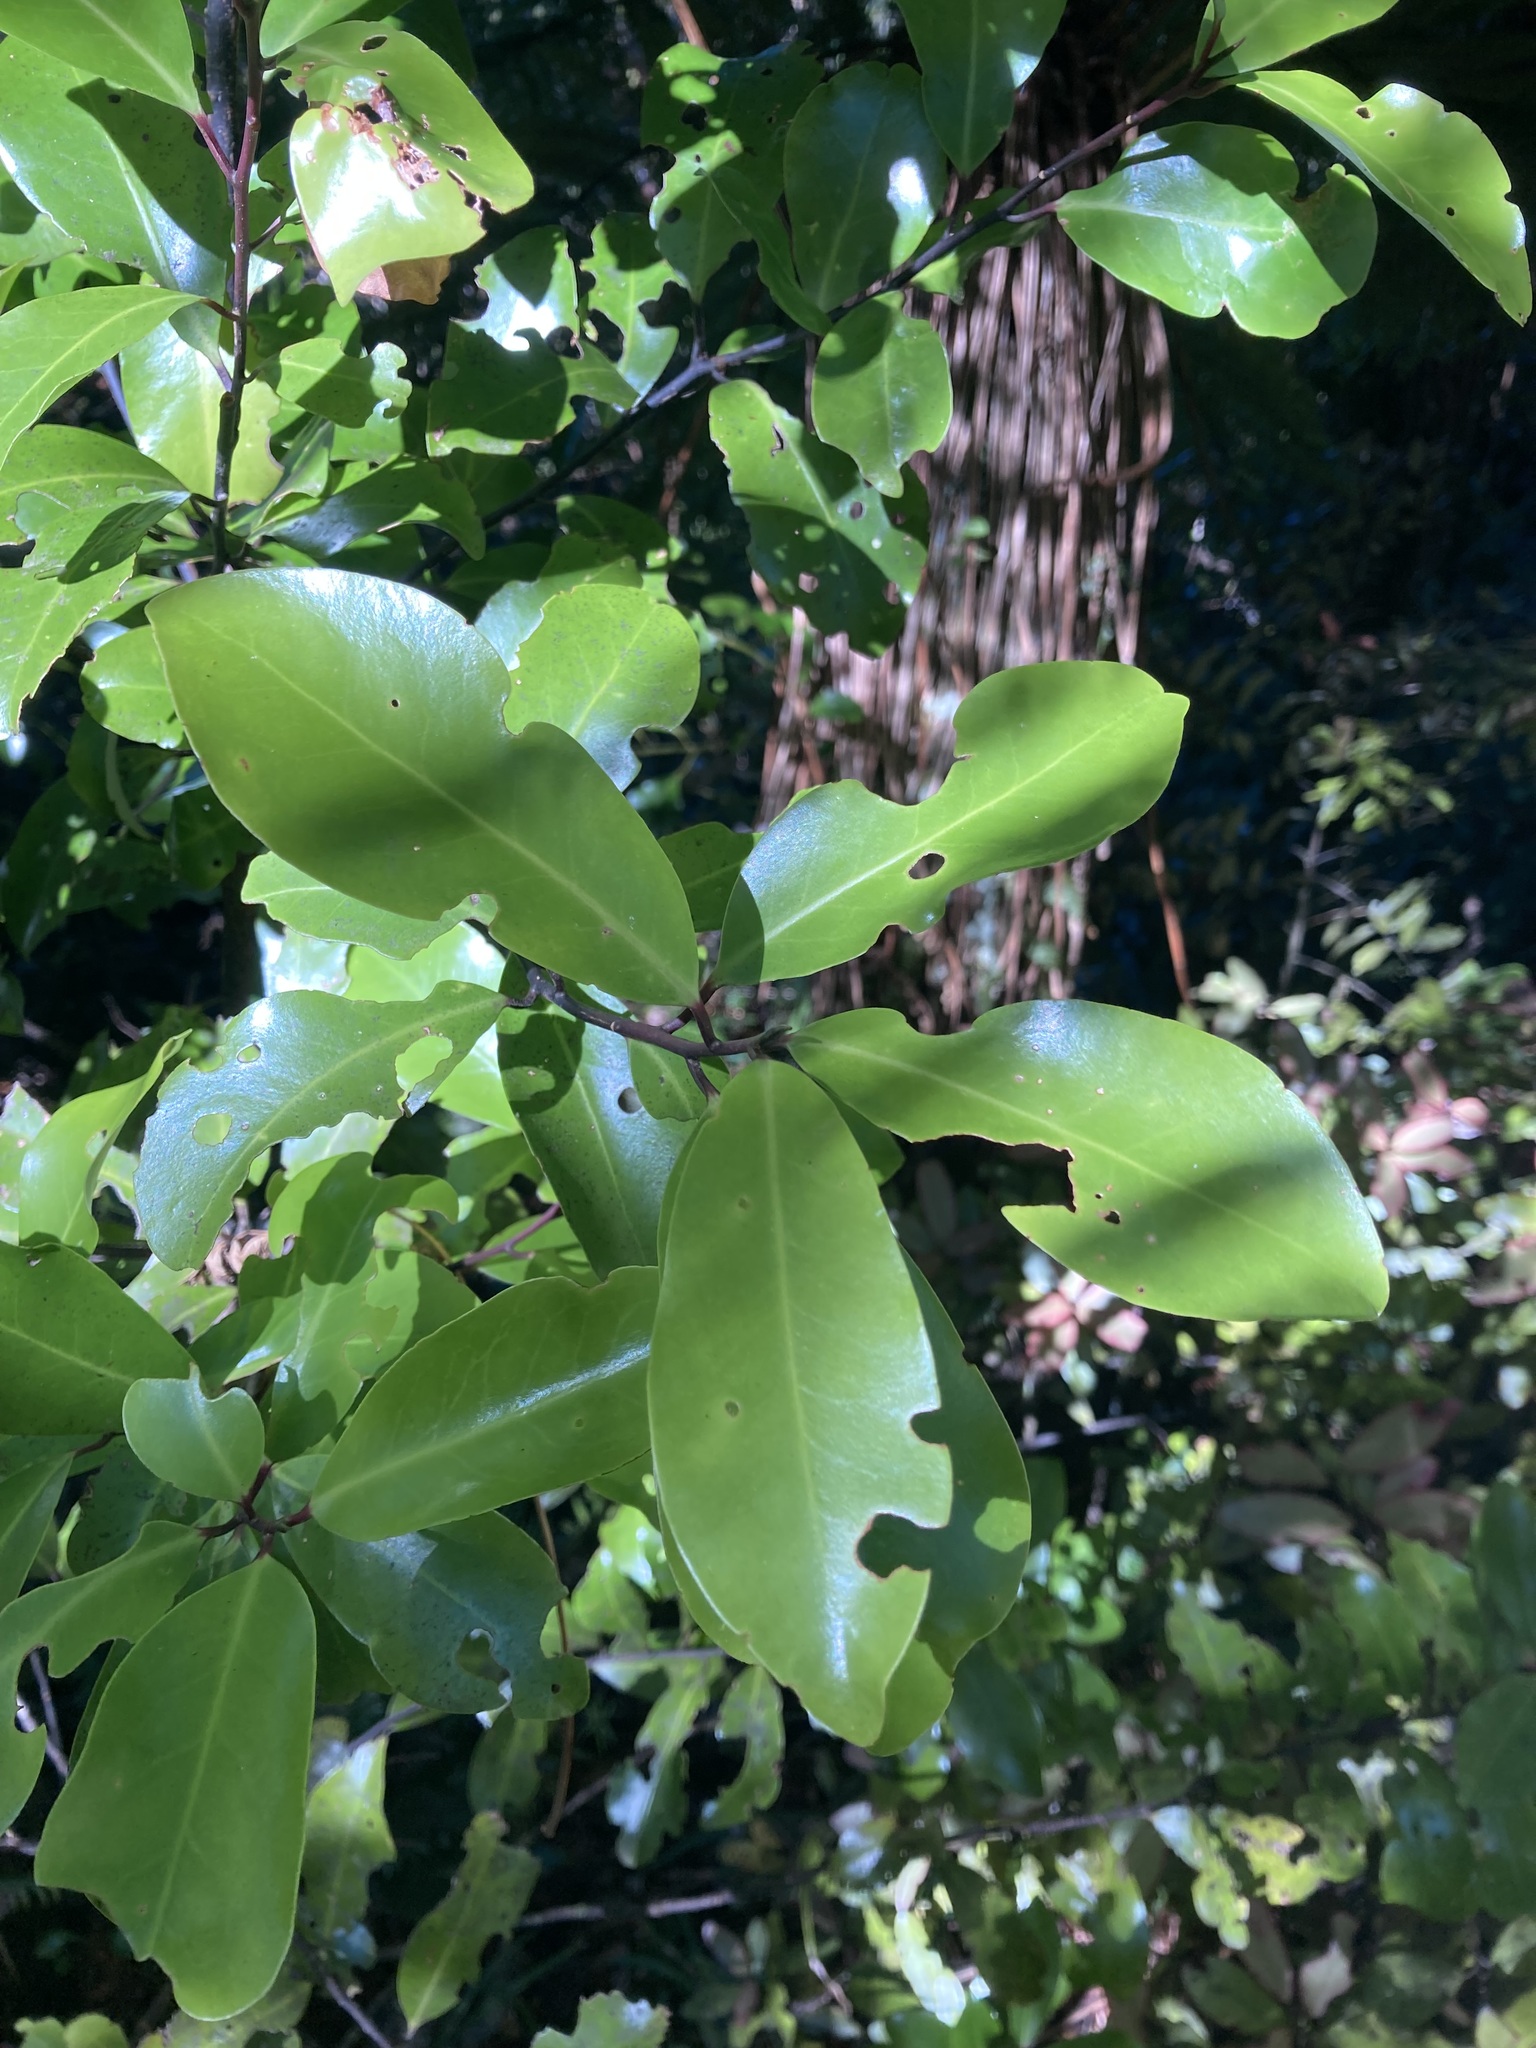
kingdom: Plantae
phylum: Tracheophyta
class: Magnoliopsida
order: Canellales
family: Winteraceae
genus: Pseudowintera
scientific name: Pseudowintera axillaris
